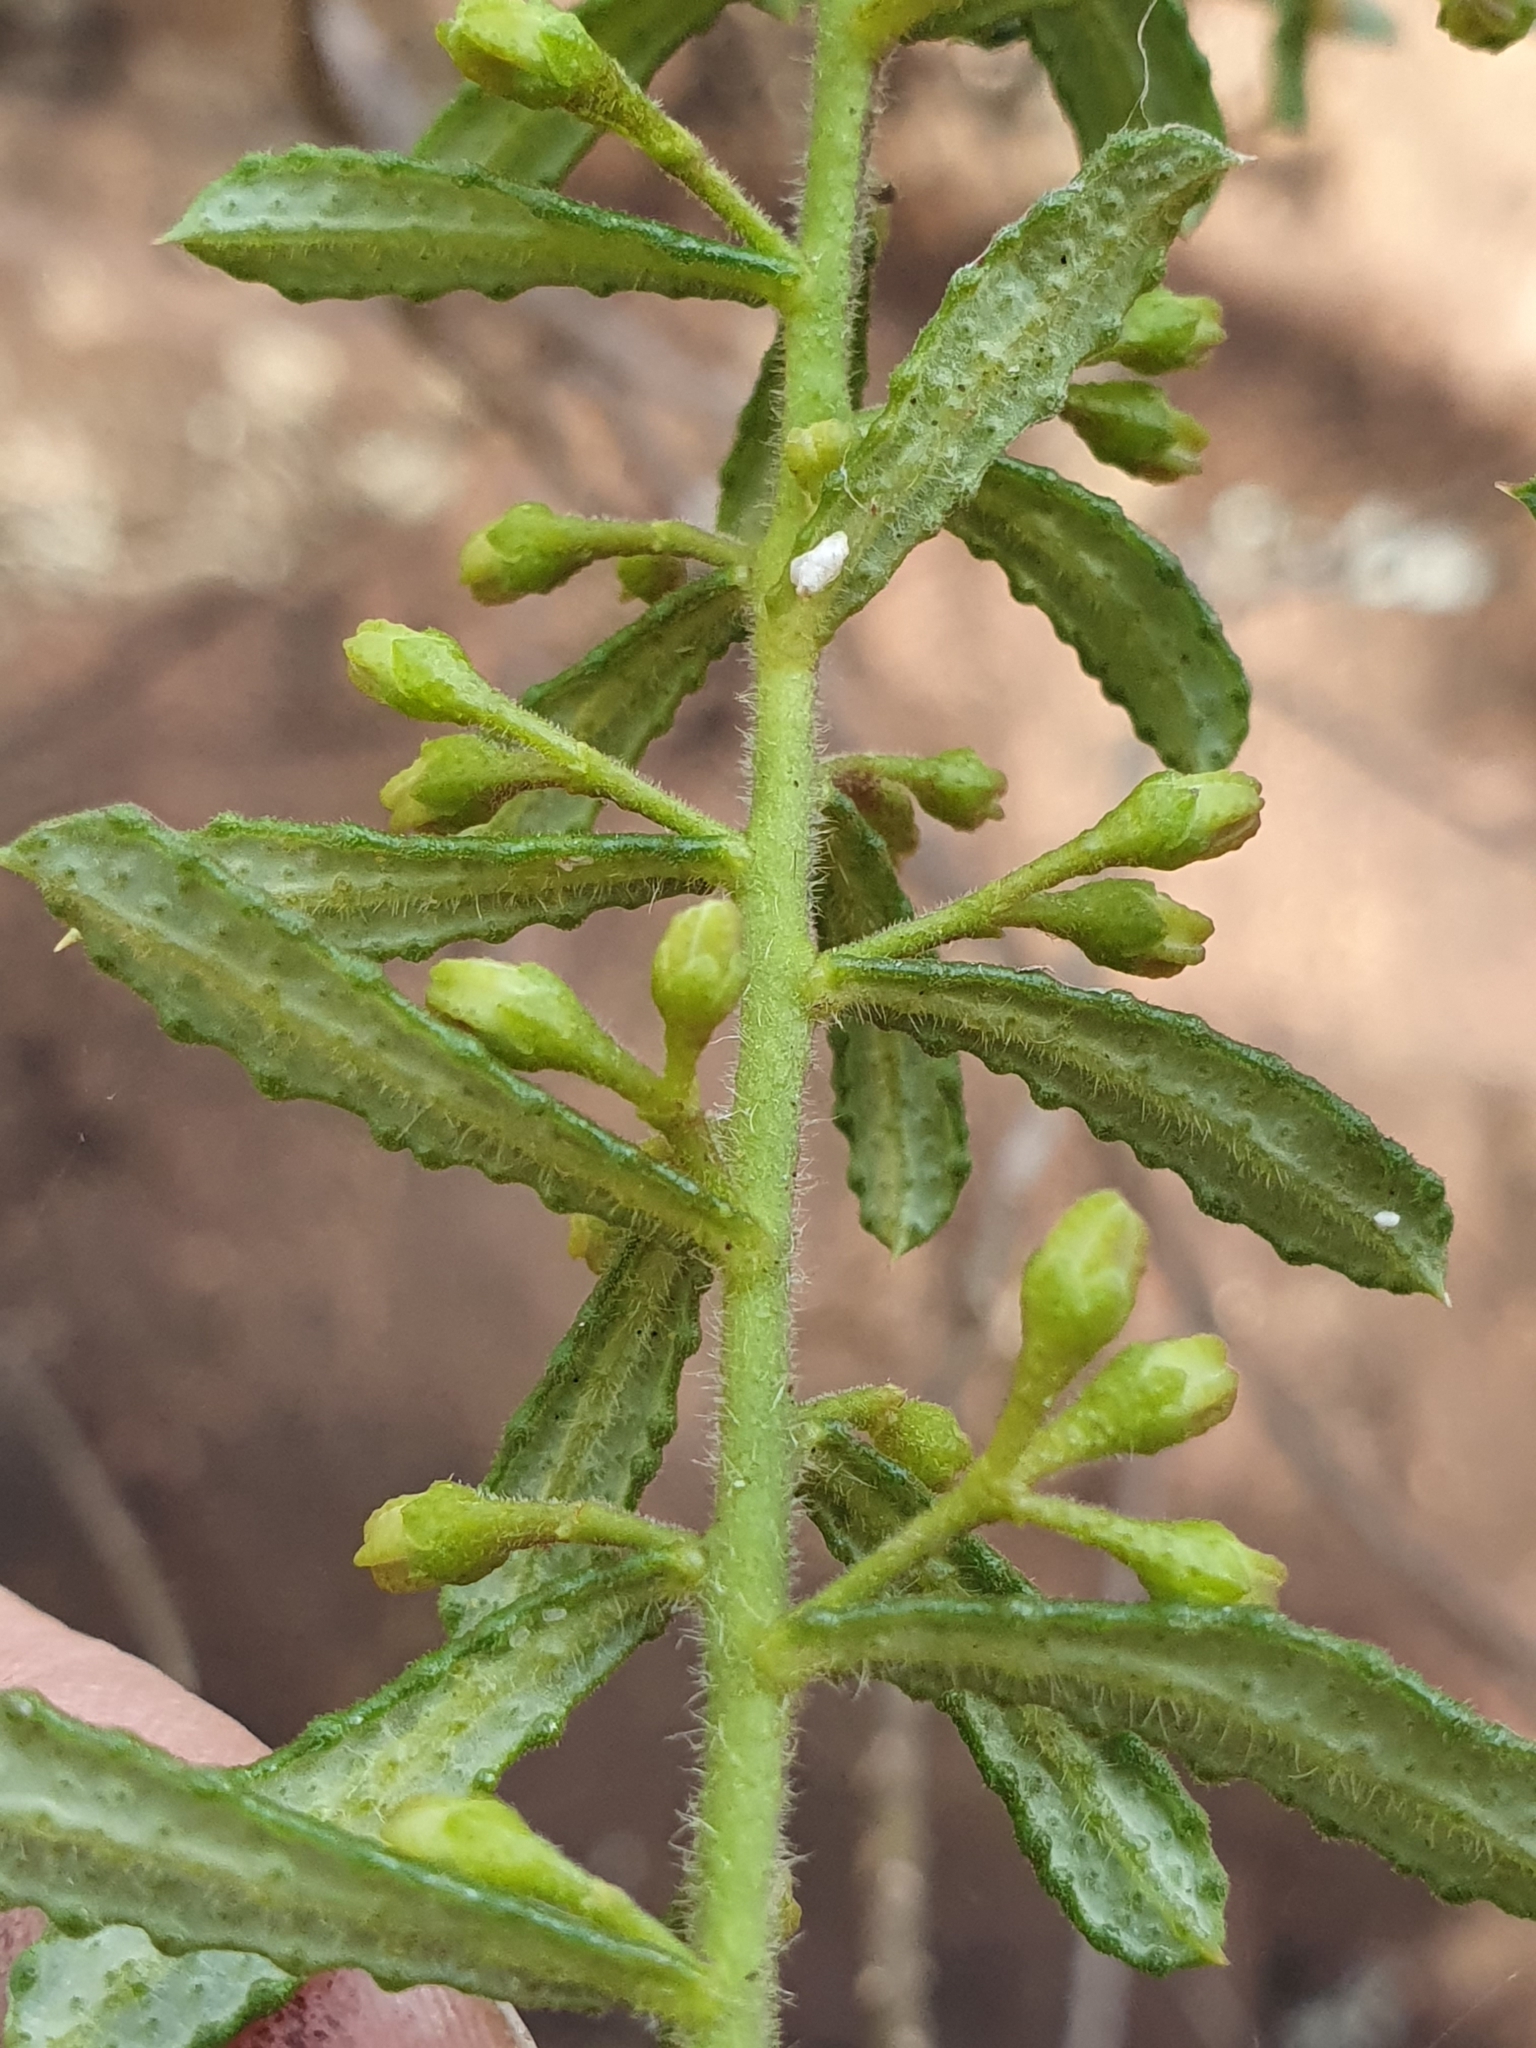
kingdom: Plantae
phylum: Tracheophyta
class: Magnoliopsida
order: Sapindales
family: Rutaceae
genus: Philotheca
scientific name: Philotheca hispidula
